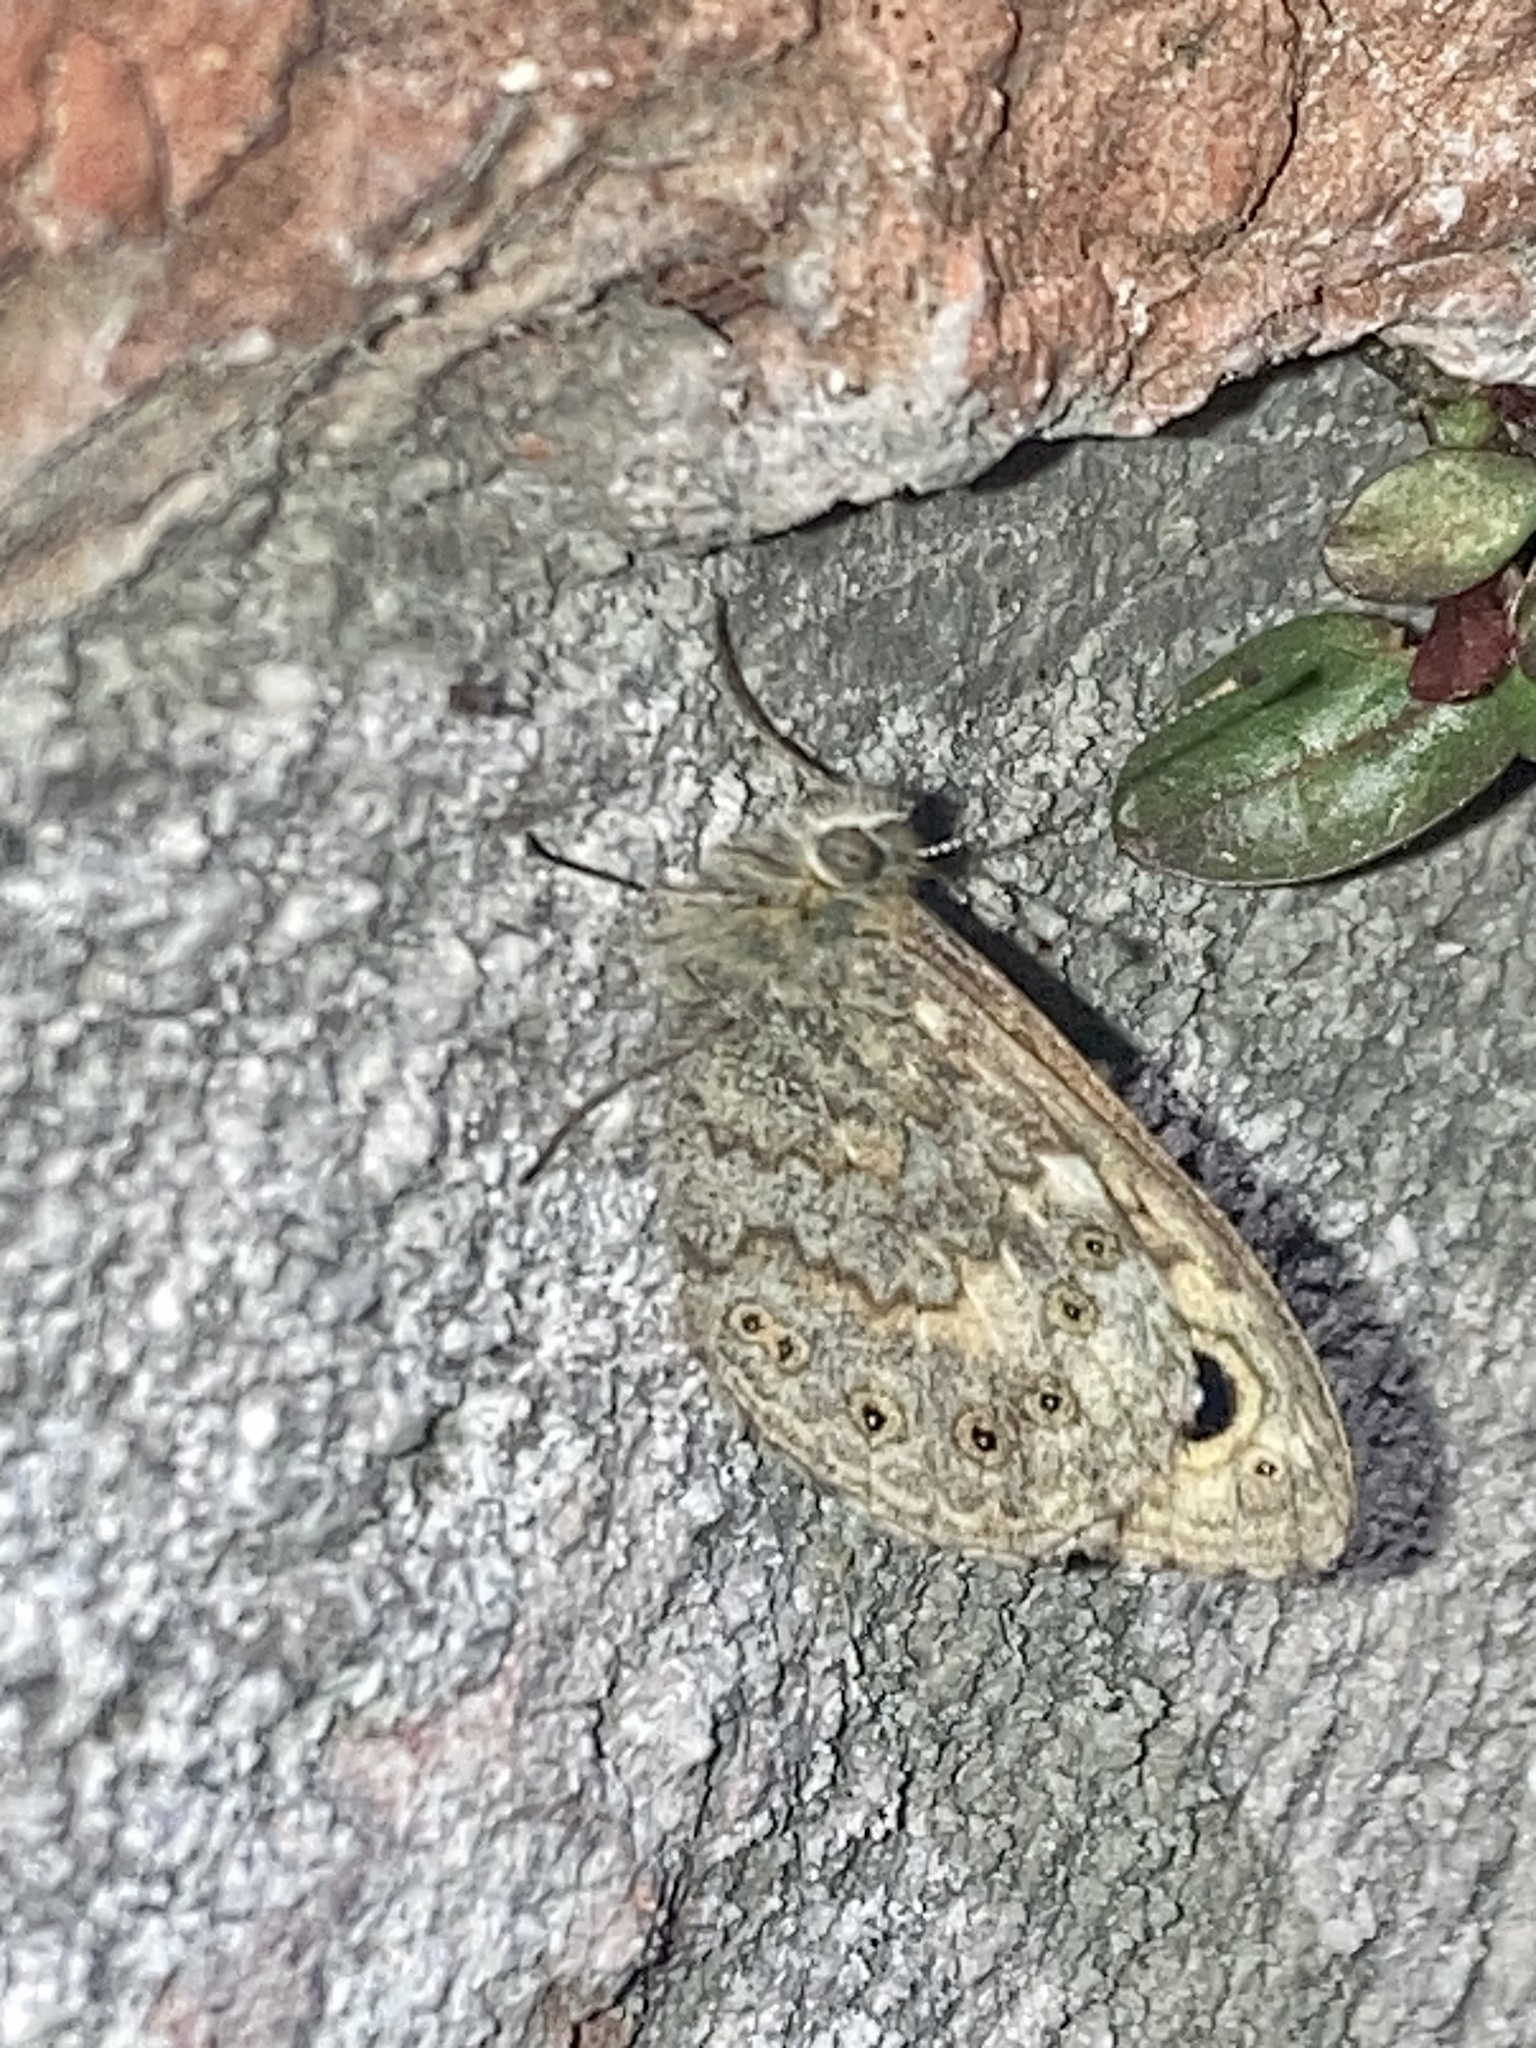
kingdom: Animalia
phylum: Arthropoda
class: Insecta
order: Lepidoptera
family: Nymphalidae
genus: Pararge
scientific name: Pararge Lasiommata megera
